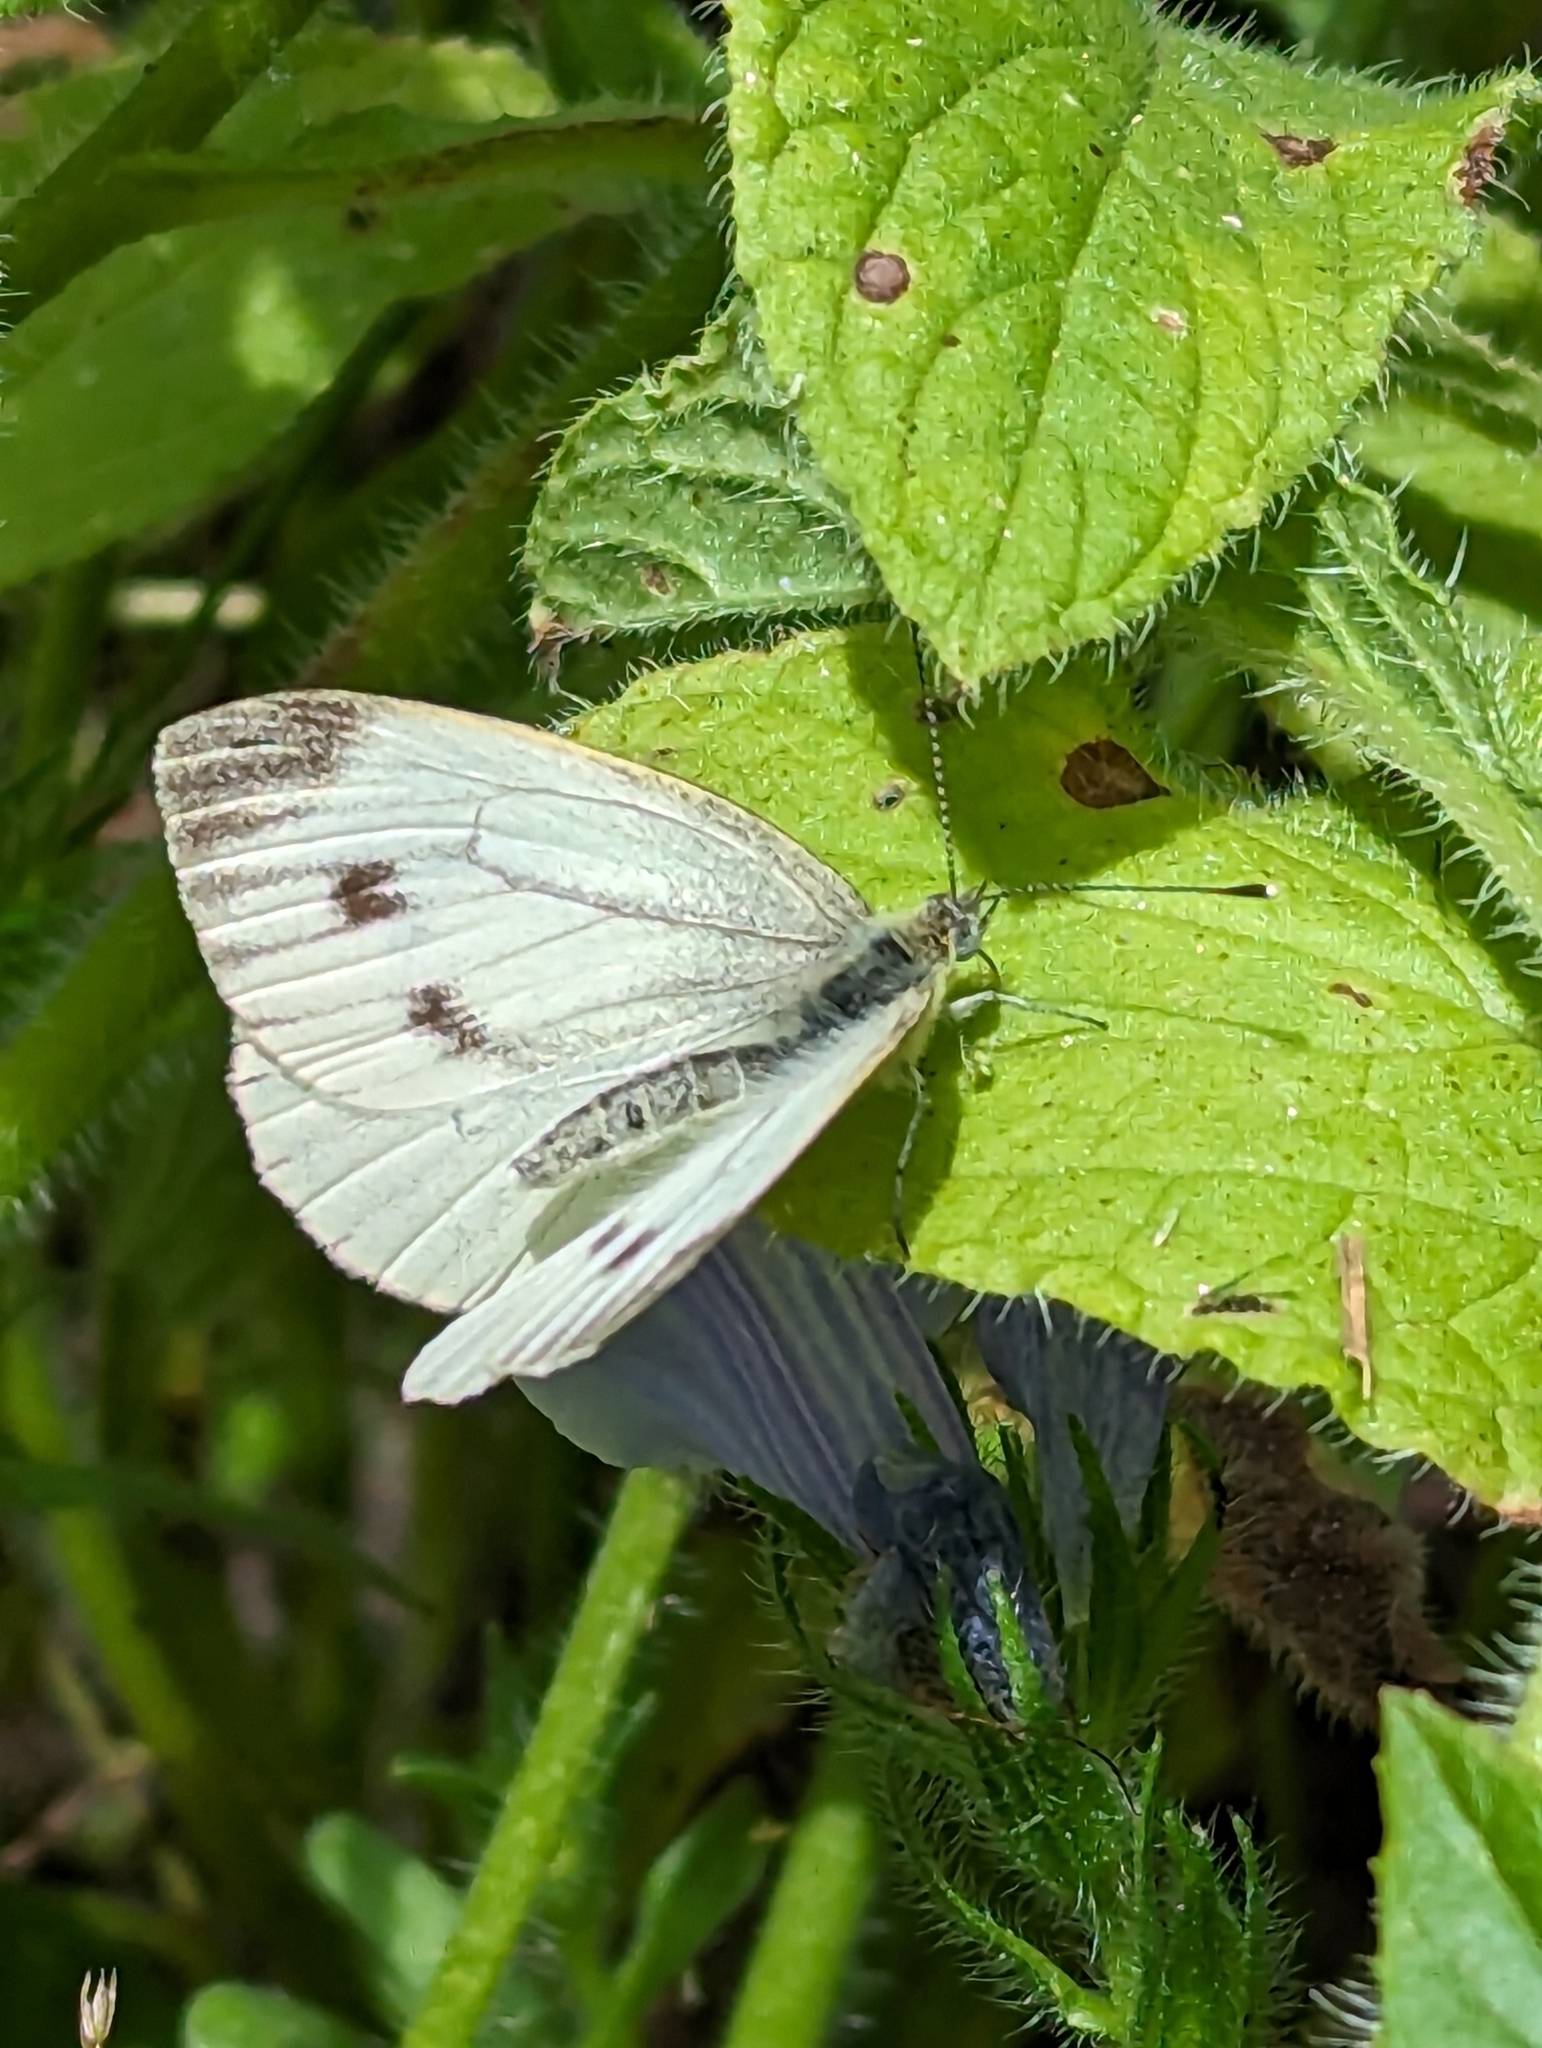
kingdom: Animalia
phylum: Arthropoda
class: Insecta
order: Lepidoptera
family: Pieridae
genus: Pieris
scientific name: Pieris napi
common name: Green-veined white
